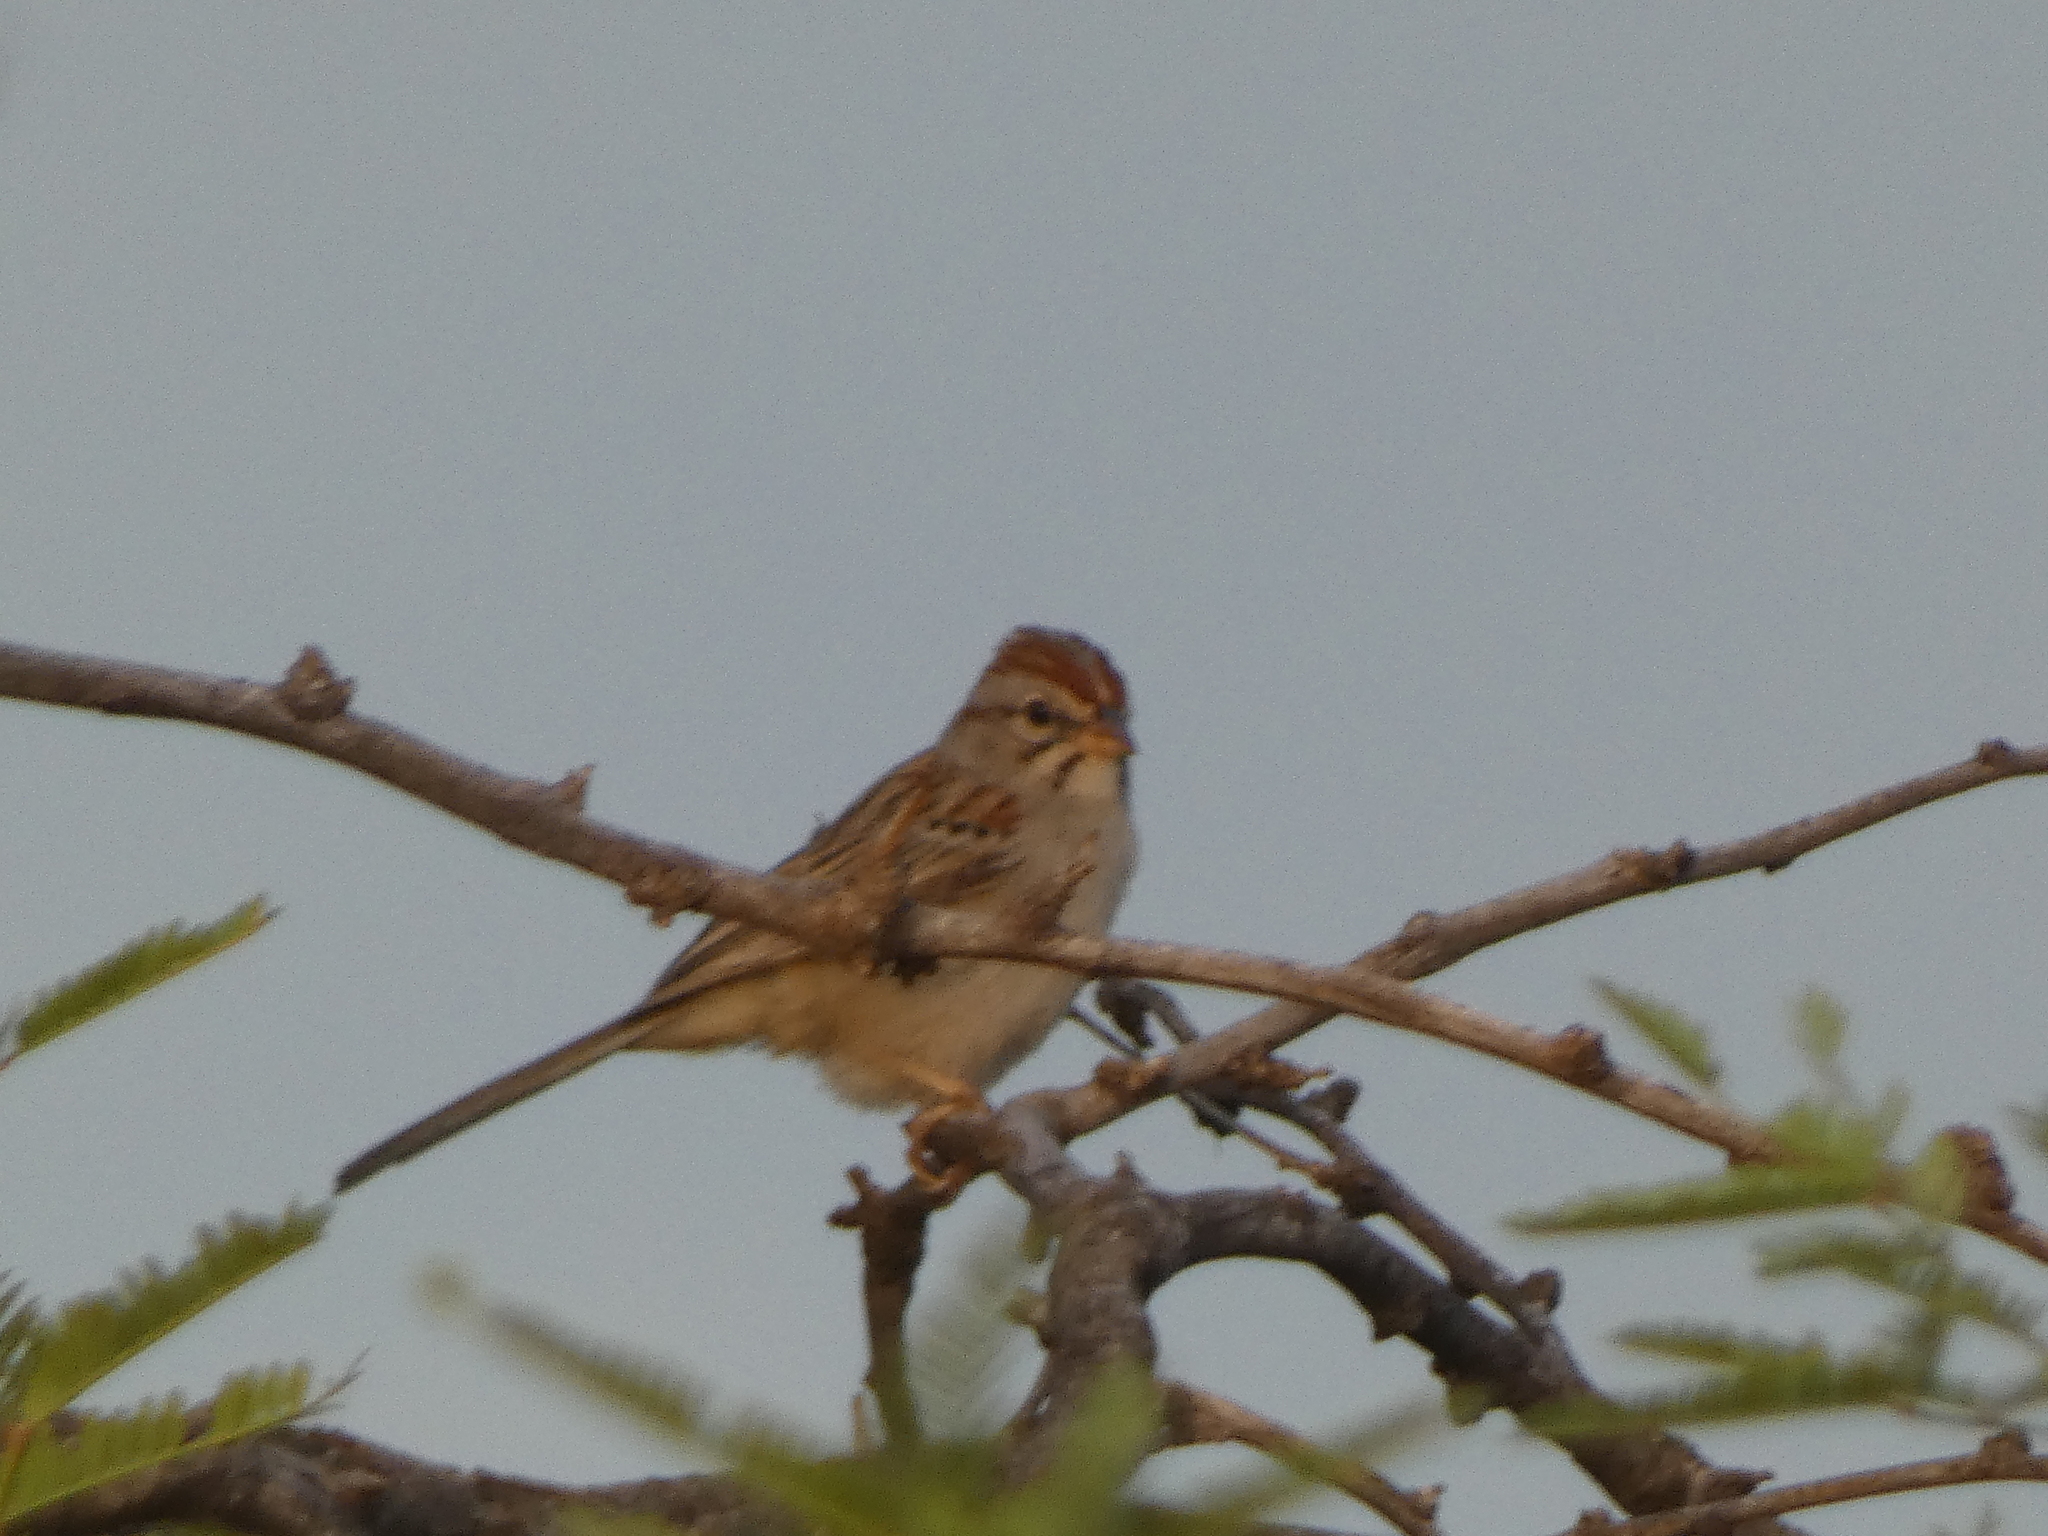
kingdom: Animalia
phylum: Chordata
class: Aves
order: Passeriformes
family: Passerellidae
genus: Peucaea
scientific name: Peucaea carpalis
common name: Rufous-winged sparrow
